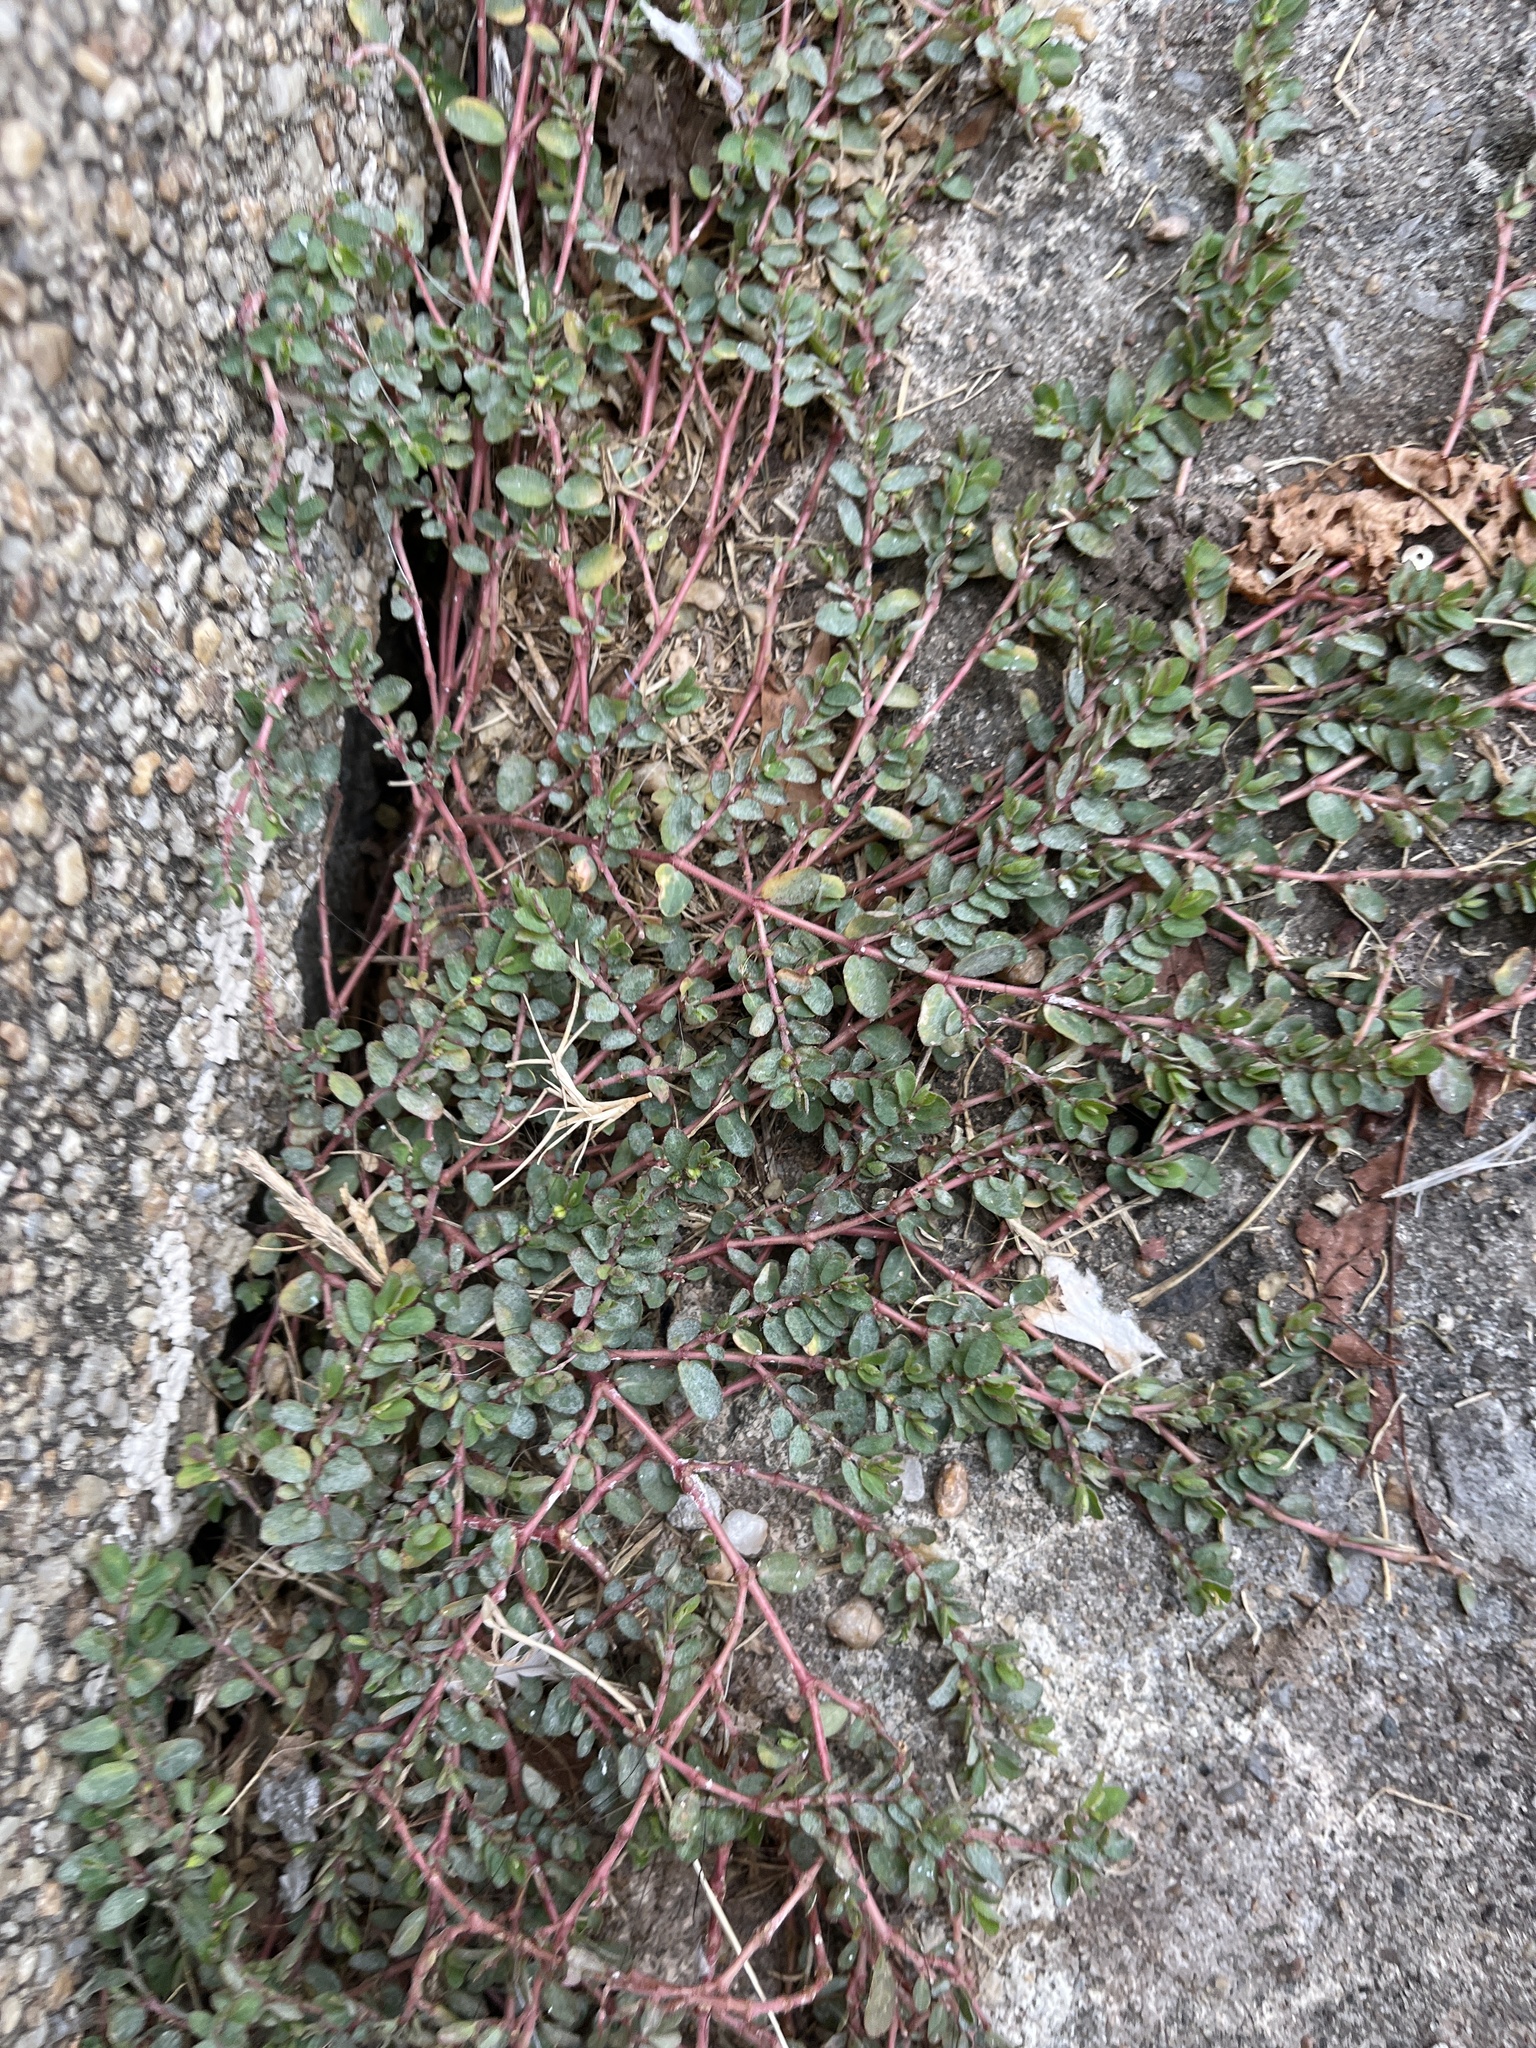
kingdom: Plantae
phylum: Tracheophyta
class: Magnoliopsida
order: Malpighiales
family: Euphorbiaceae
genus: Euphorbia
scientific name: Euphorbia prostrata
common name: Prostrate sandmat
